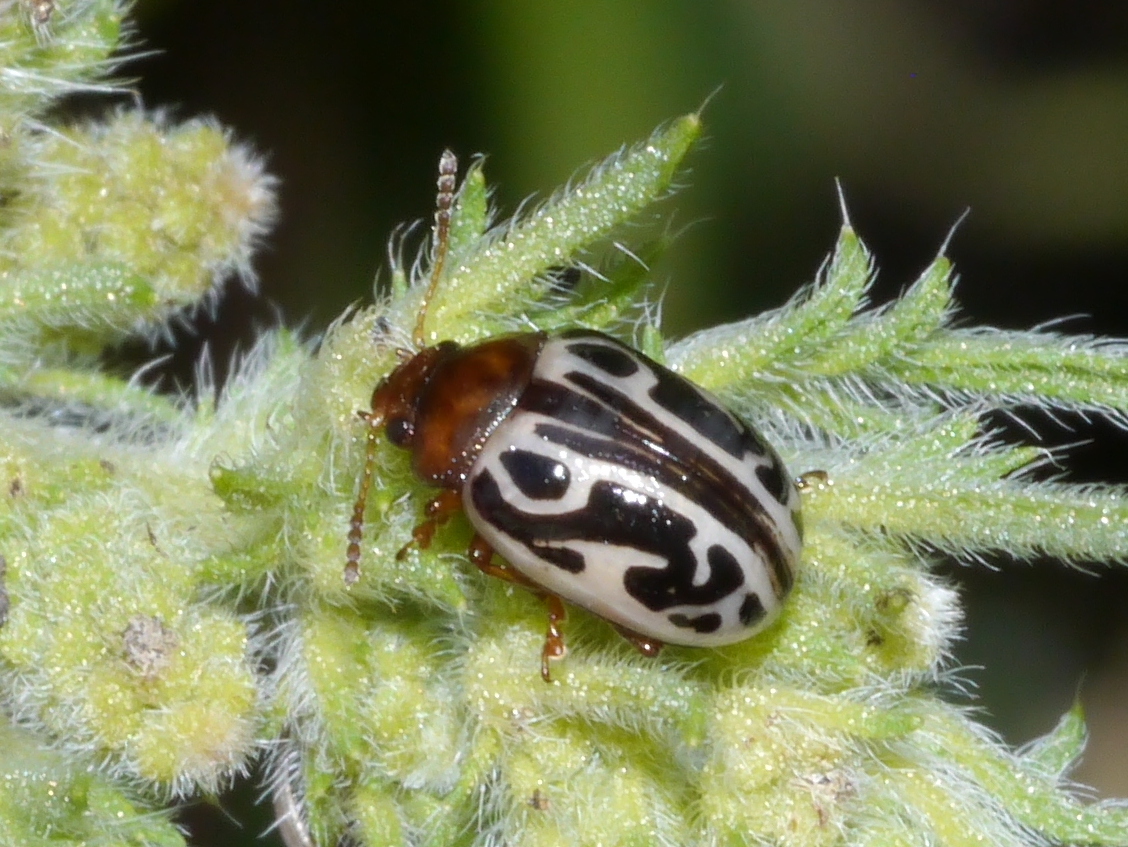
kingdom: Animalia
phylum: Arthropoda
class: Insecta
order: Coleoptera
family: Chrysomelidae
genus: Calligrapha
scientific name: Calligrapha
